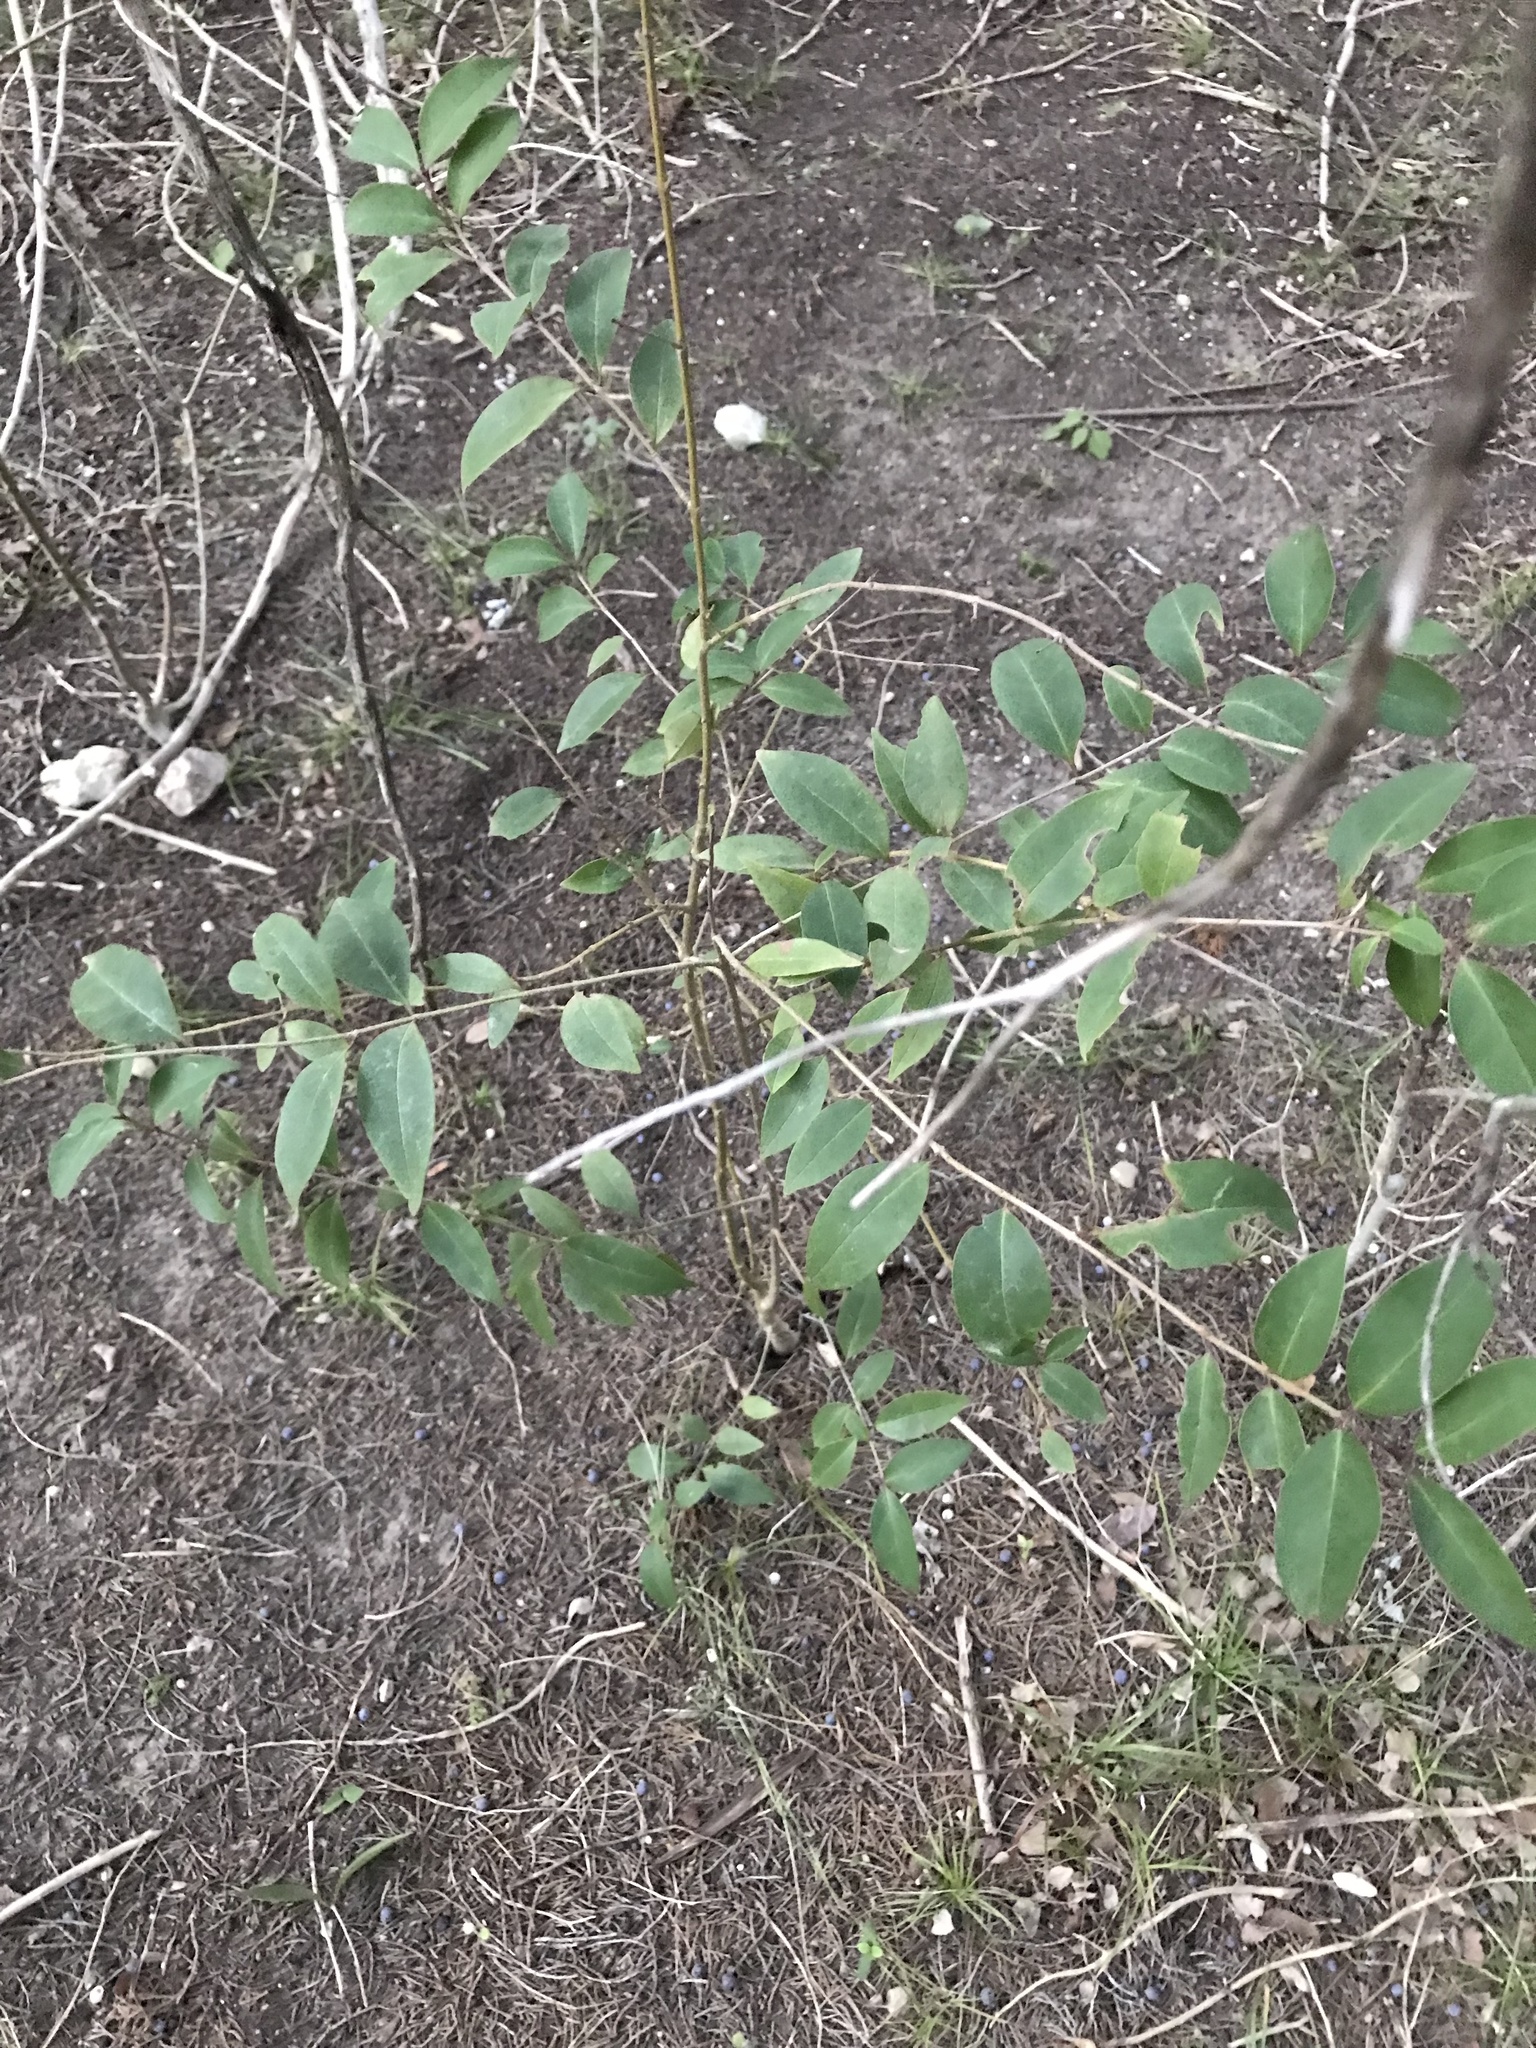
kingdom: Plantae
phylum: Tracheophyta
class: Magnoliopsida
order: Lamiales
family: Oleaceae
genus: Ligustrum
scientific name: Ligustrum lucidum
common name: Glossy privet
